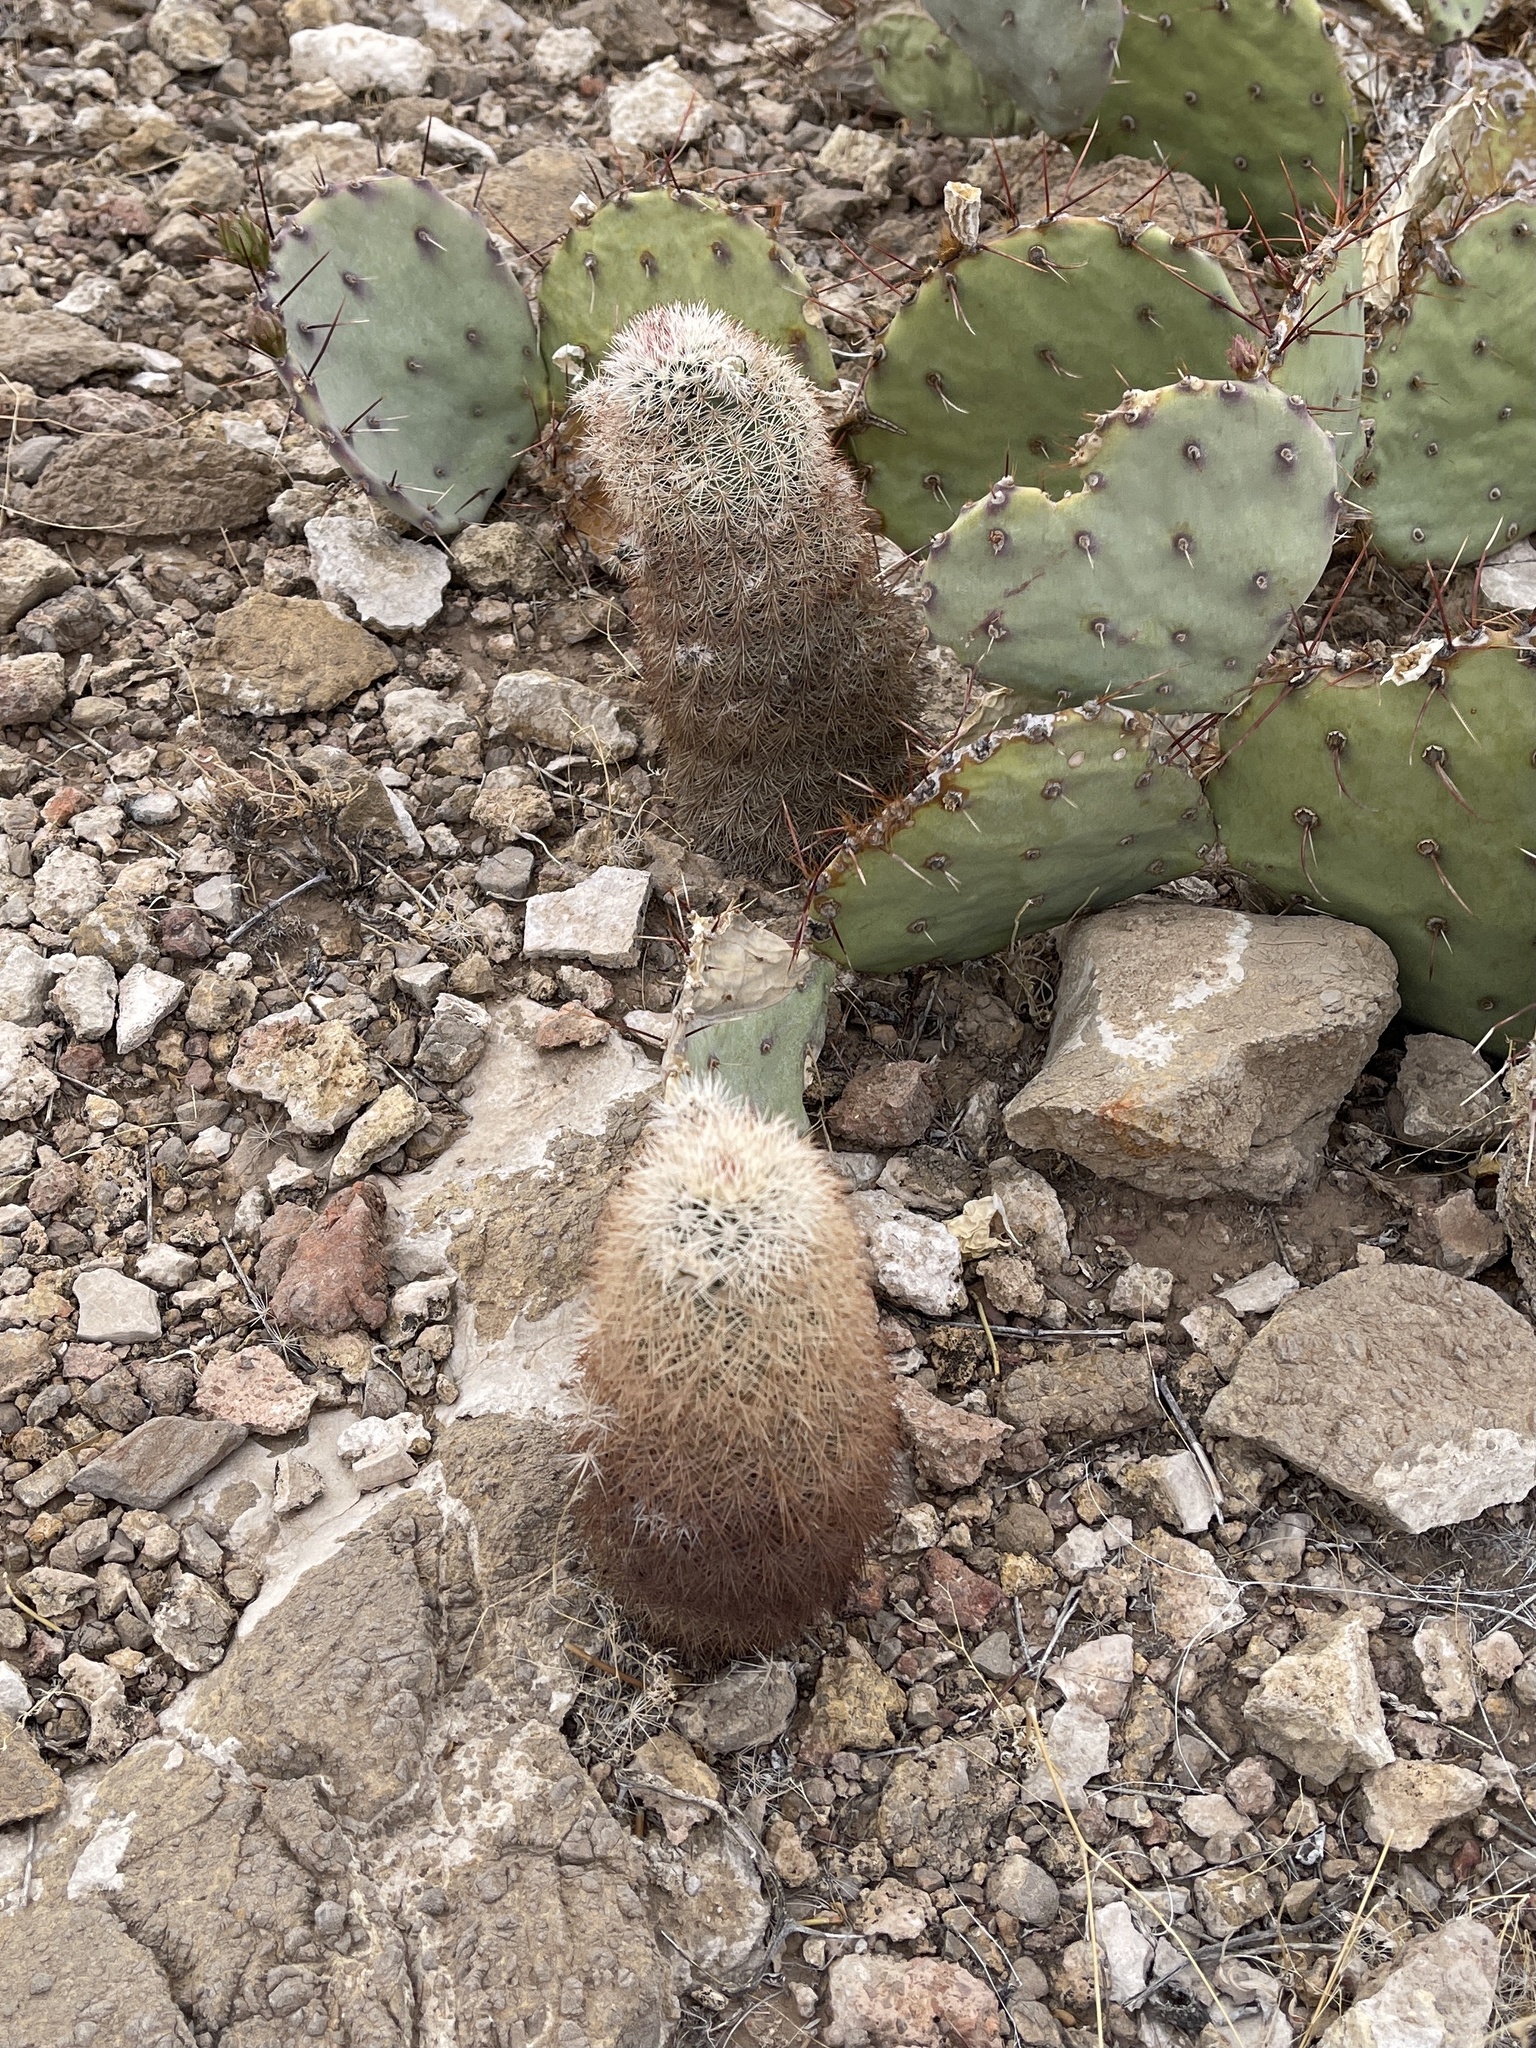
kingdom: Plantae
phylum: Tracheophyta
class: Magnoliopsida
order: Caryophyllales
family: Cactaceae
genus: Echinocereus
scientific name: Echinocereus dasyacanthus
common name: Spiny hedgehog cactus
